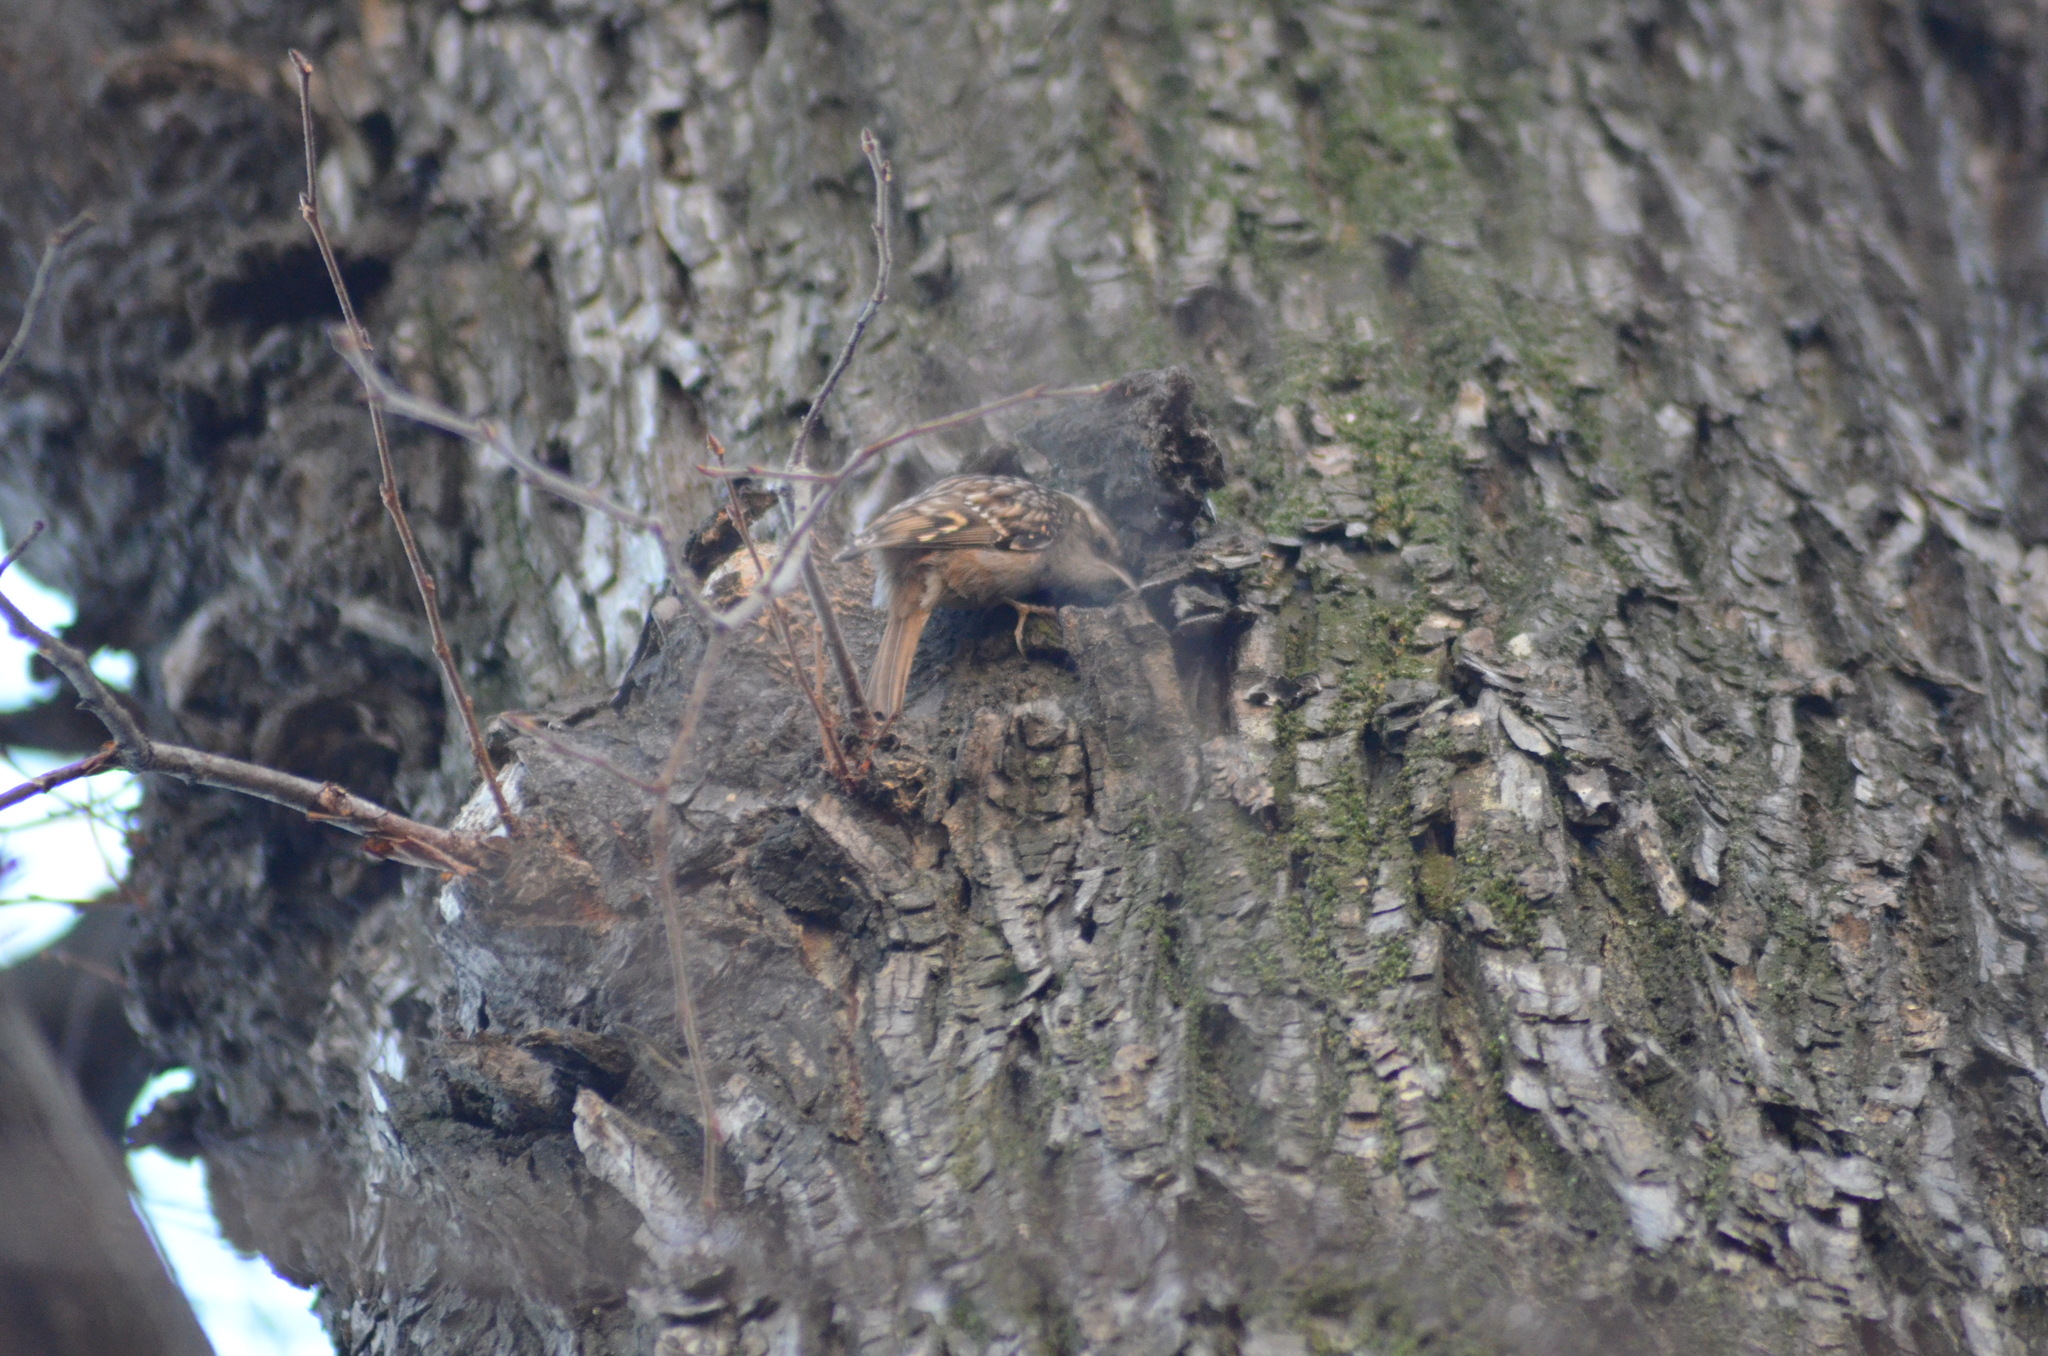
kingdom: Animalia
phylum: Chordata
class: Aves
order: Passeriformes
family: Certhiidae
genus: Certhia
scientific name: Certhia brachydactyla
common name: Short-toed treecreeper
